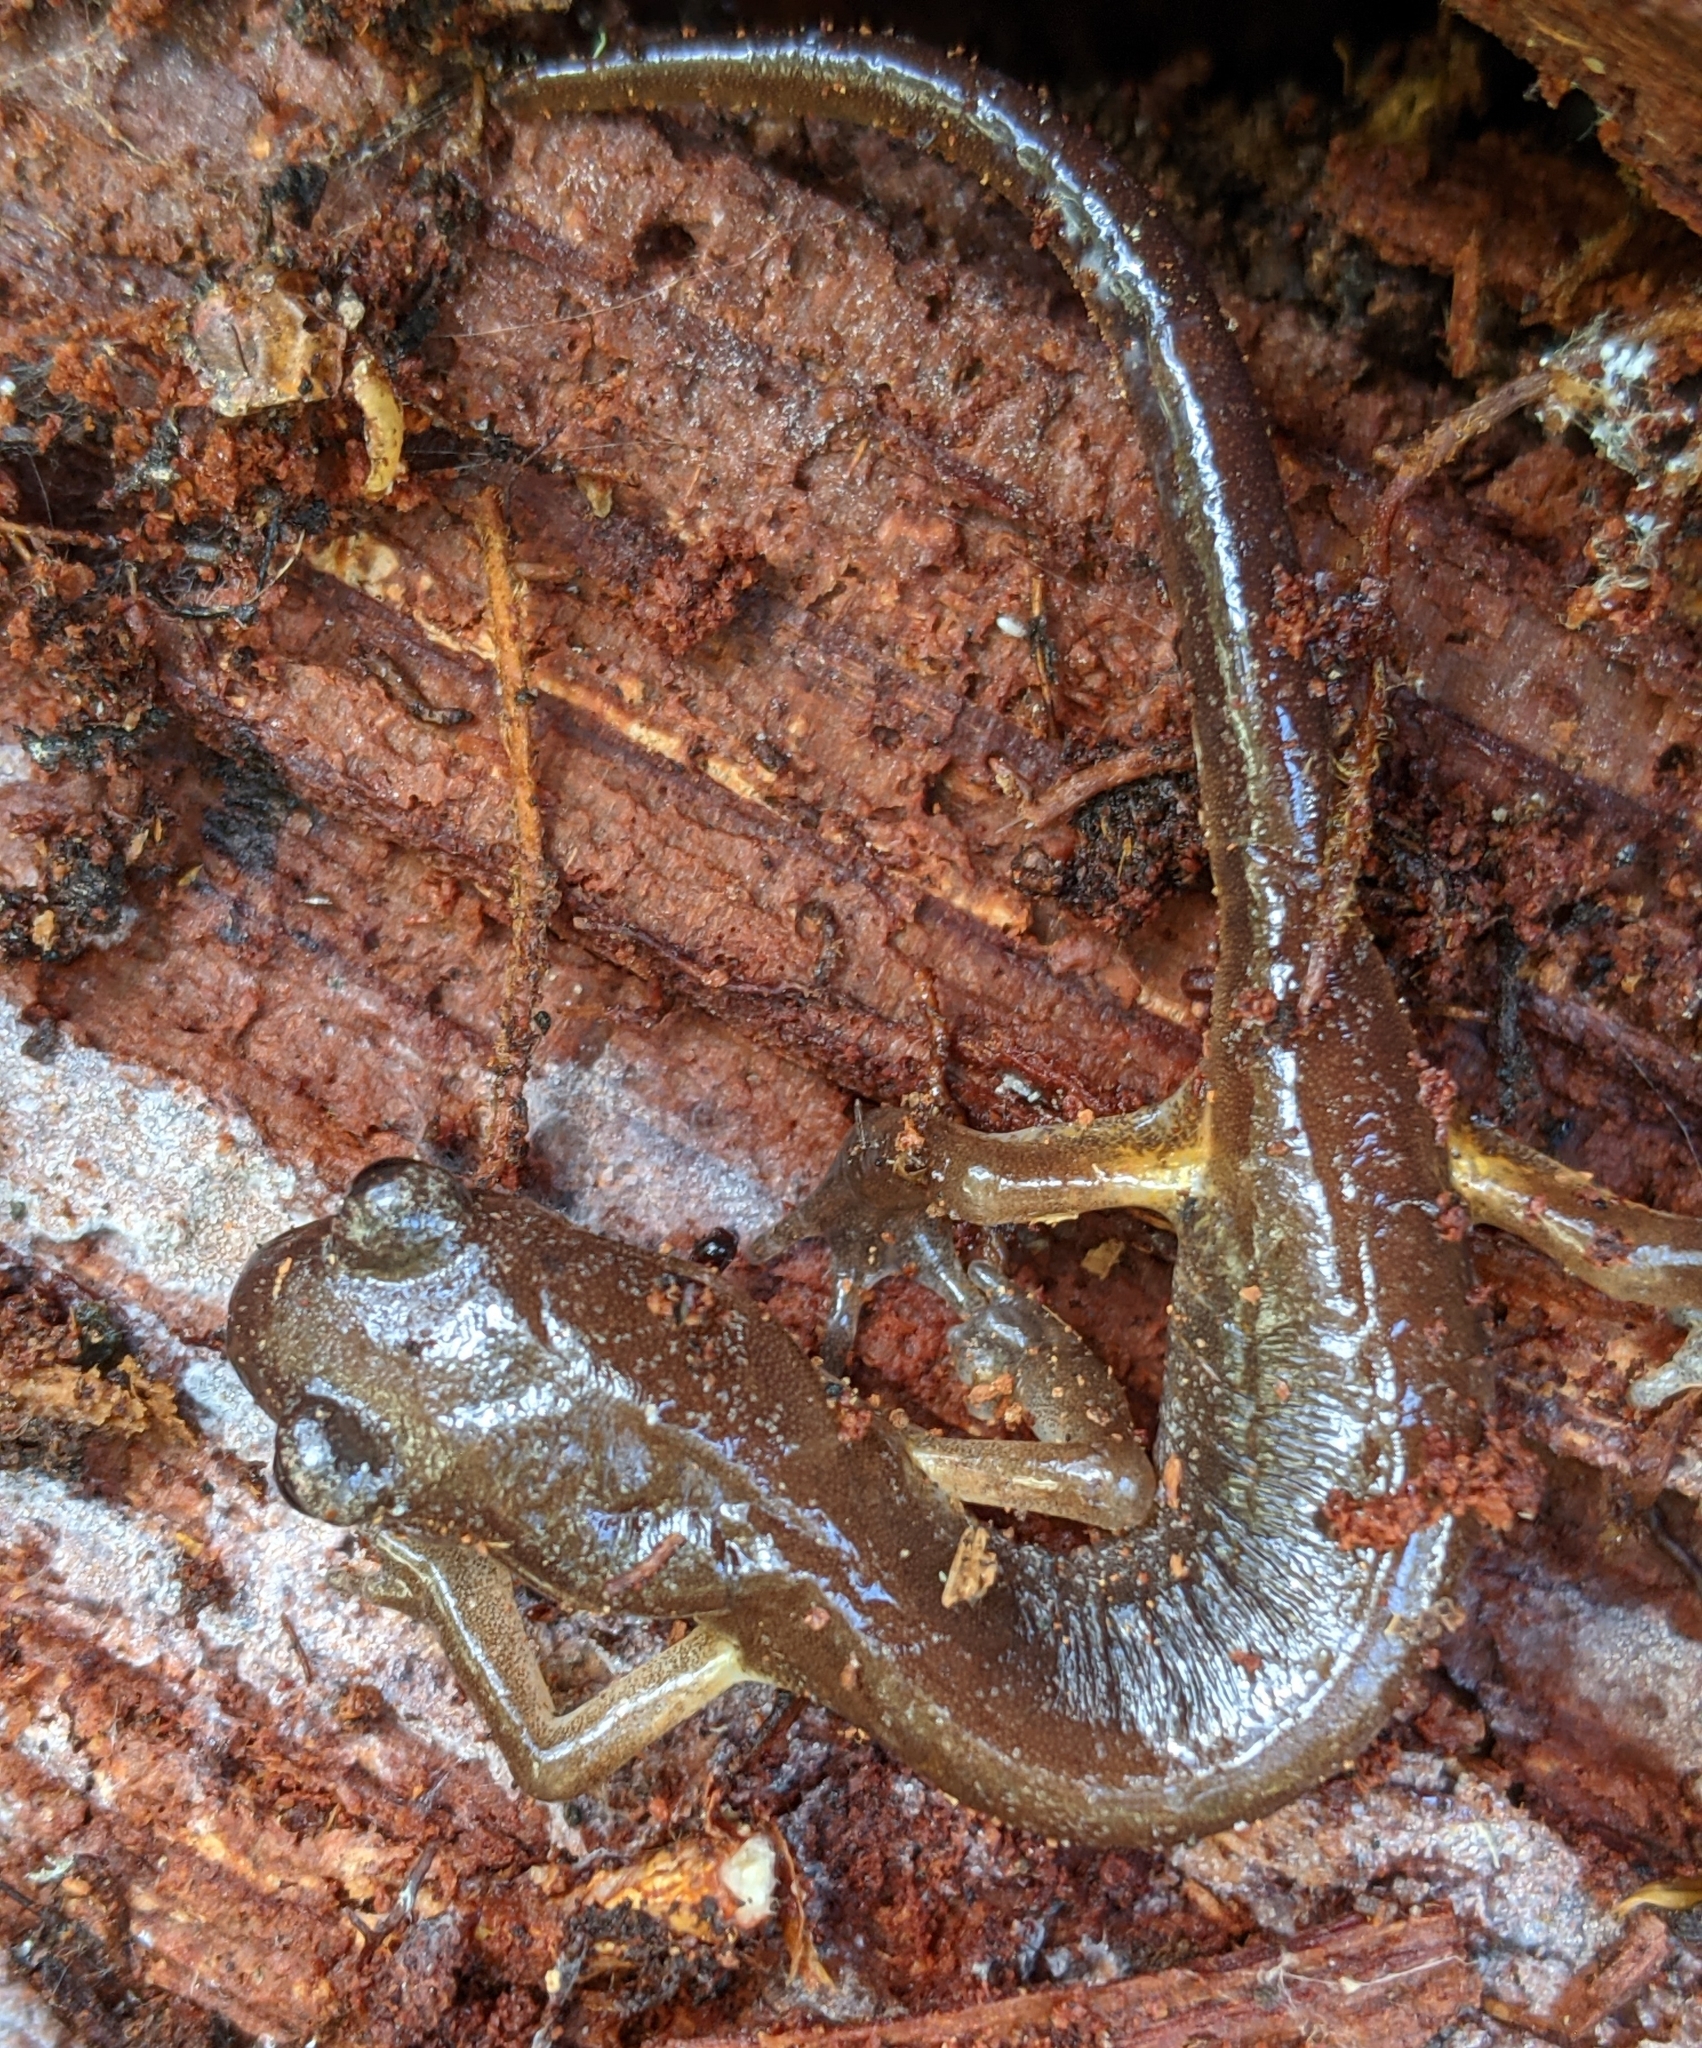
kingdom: Animalia
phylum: Chordata
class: Amphibia
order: Caudata
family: Plethodontidae
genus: Ensatina
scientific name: Ensatina eschscholtzii
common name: Ensatina
